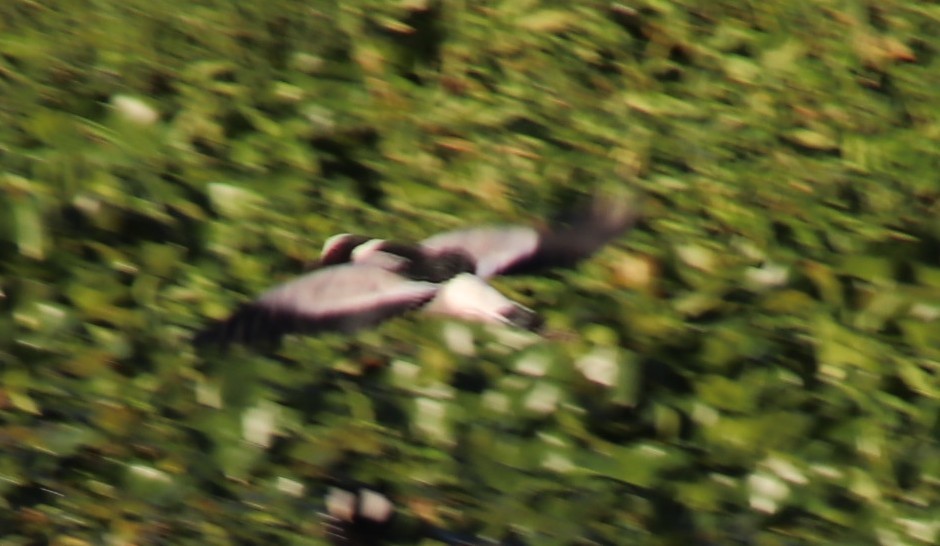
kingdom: Animalia
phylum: Chordata
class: Aves
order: Charadriiformes
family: Charadriidae
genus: Vanellus
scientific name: Vanellus armatus
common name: Blacksmith lapwing
